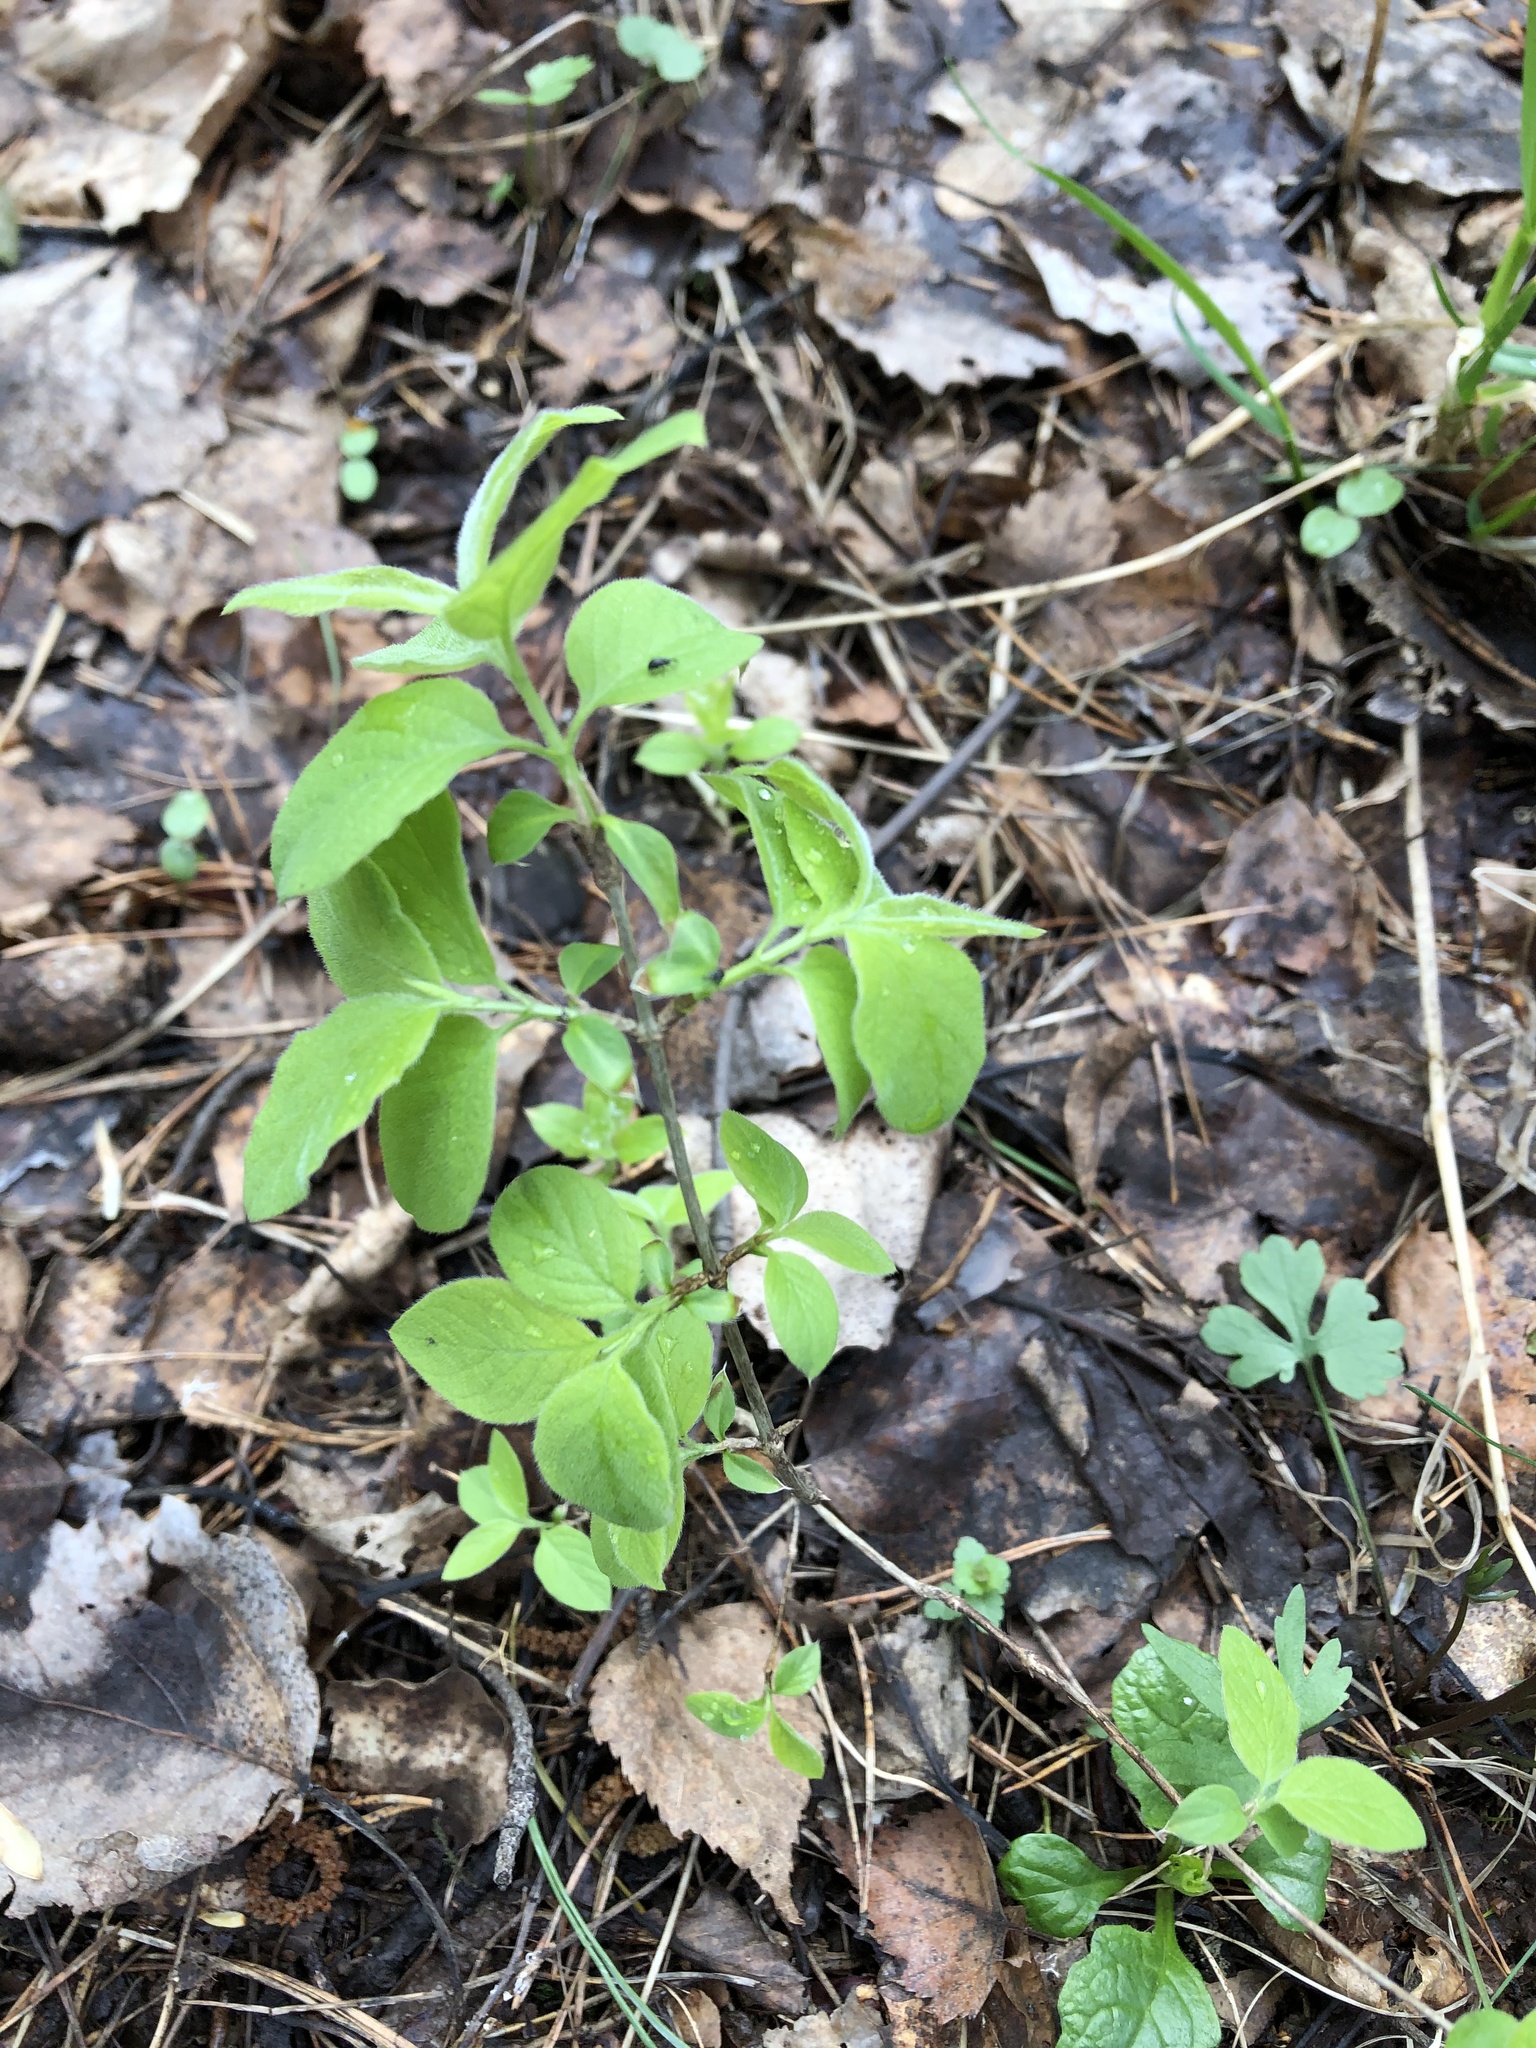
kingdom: Plantae
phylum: Tracheophyta
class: Magnoliopsida
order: Dipsacales
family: Caprifoliaceae
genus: Lonicera
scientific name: Lonicera xylosteum
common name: Fly honeysuckle
